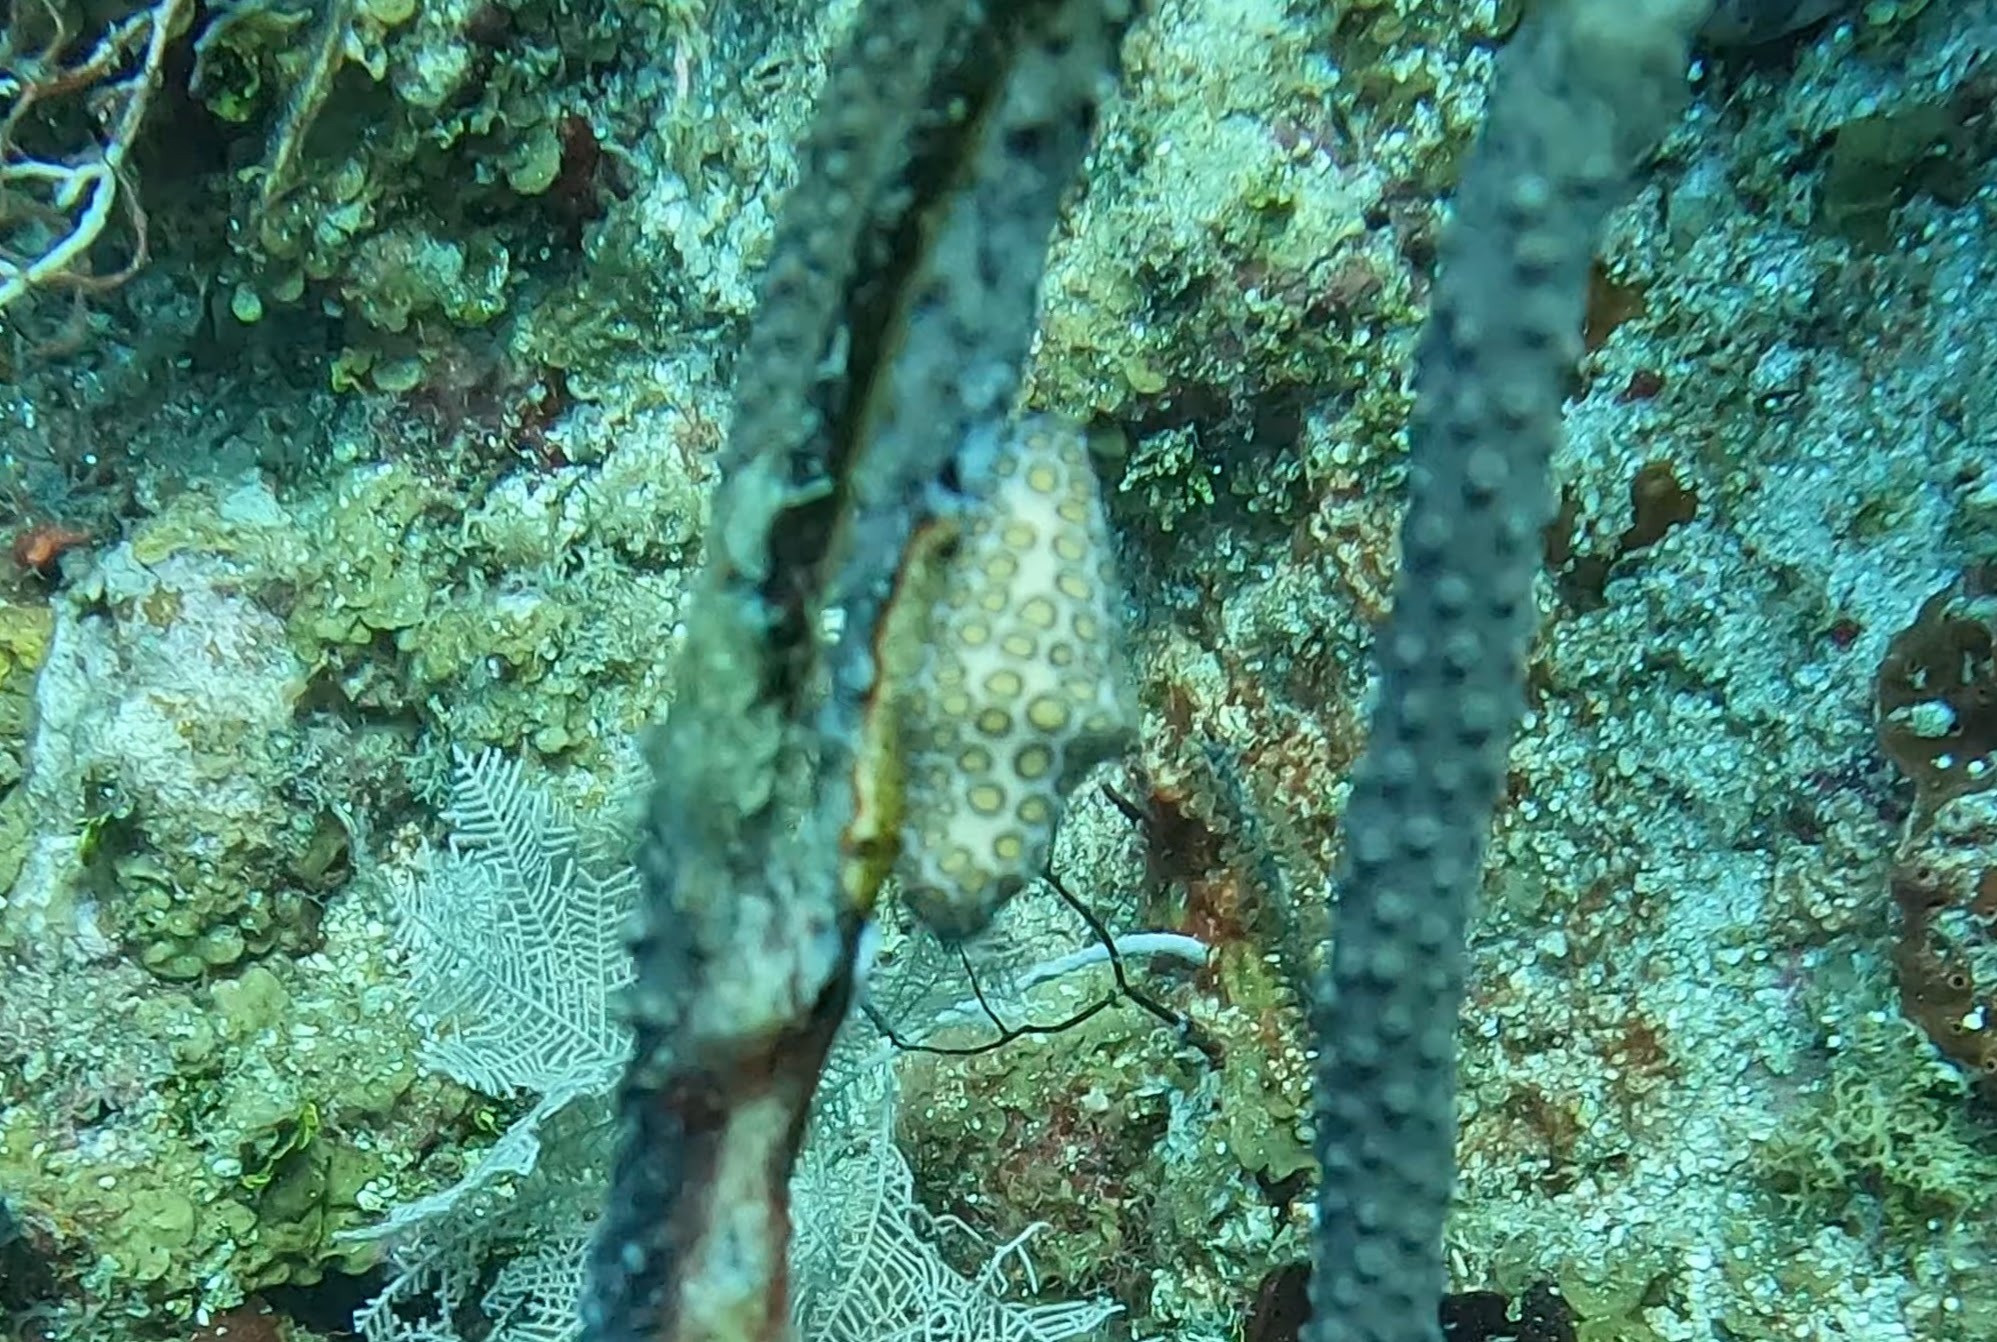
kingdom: Animalia
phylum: Mollusca
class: Gastropoda
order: Littorinimorpha
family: Ovulidae
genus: Cyphoma
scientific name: Cyphoma gibbosum
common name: Flamingo tongue
